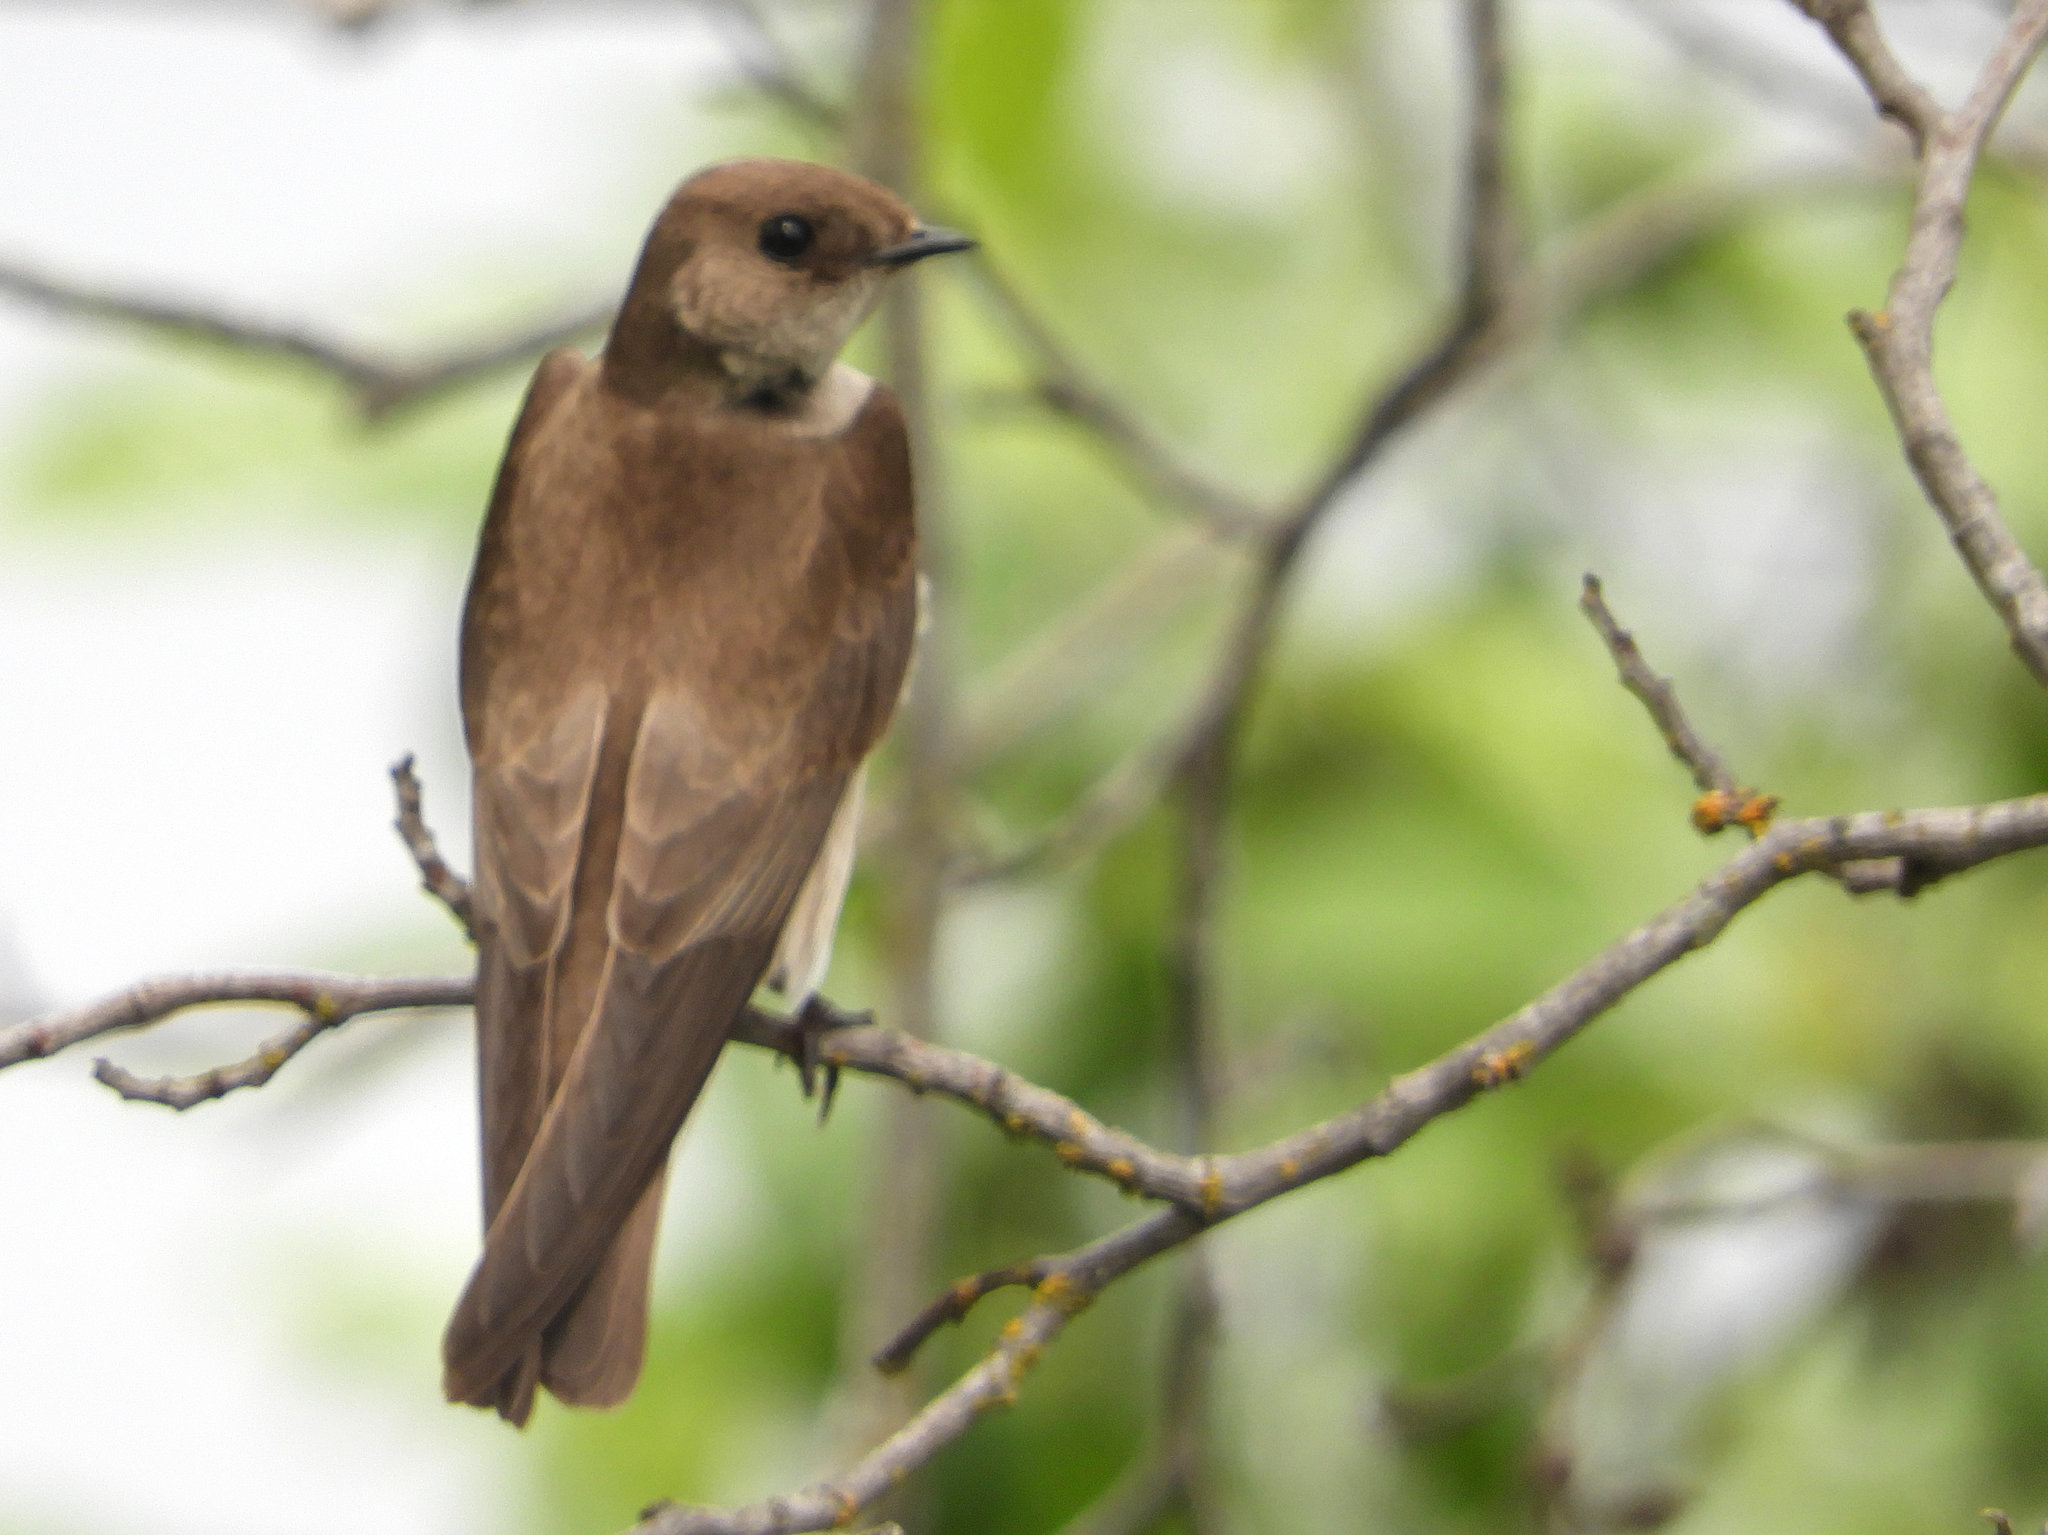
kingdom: Animalia
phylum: Chordata
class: Aves
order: Passeriformes
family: Hirundinidae
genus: Stelgidopteryx
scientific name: Stelgidopteryx serripennis
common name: Northern rough-winged swallow
